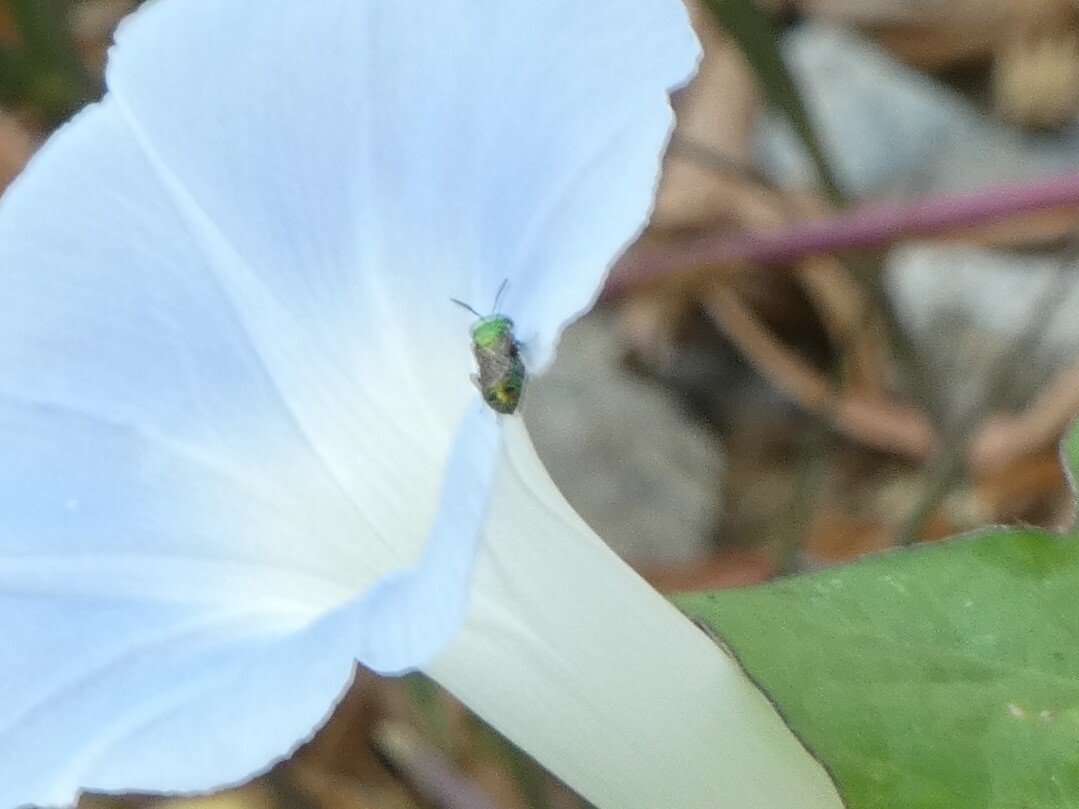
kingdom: Animalia
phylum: Arthropoda
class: Insecta
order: Hymenoptera
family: Apidae
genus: Ceratina
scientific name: Ceratina smaragdula
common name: Small carpenter bee
